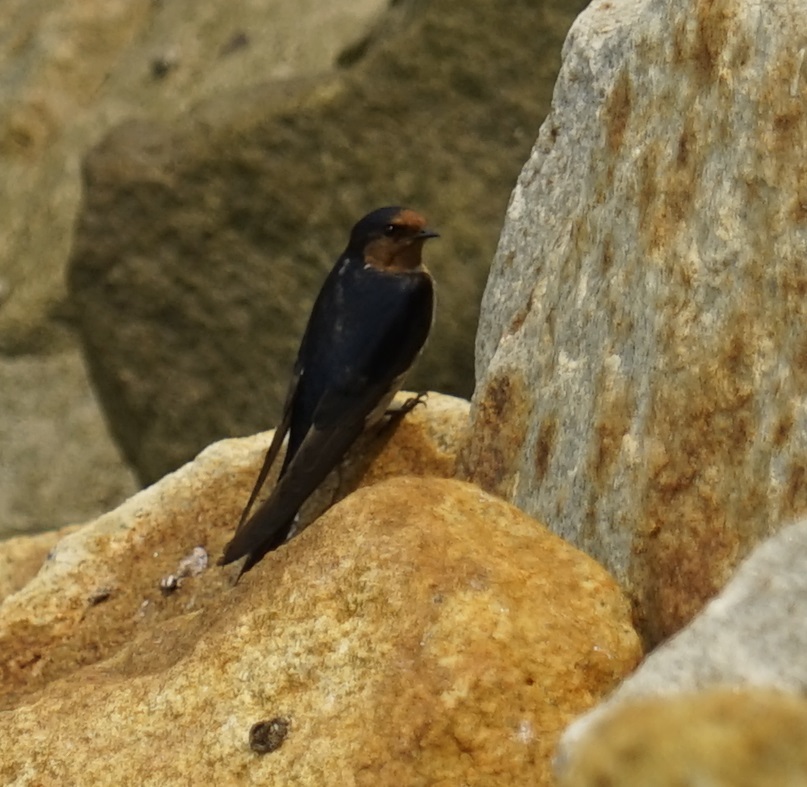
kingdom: Animalia
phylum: Chordata
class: Aves
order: Passeriformes
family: Hirundinidae
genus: Hirundo
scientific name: Hirundo neoxena
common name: Welcome swallow
